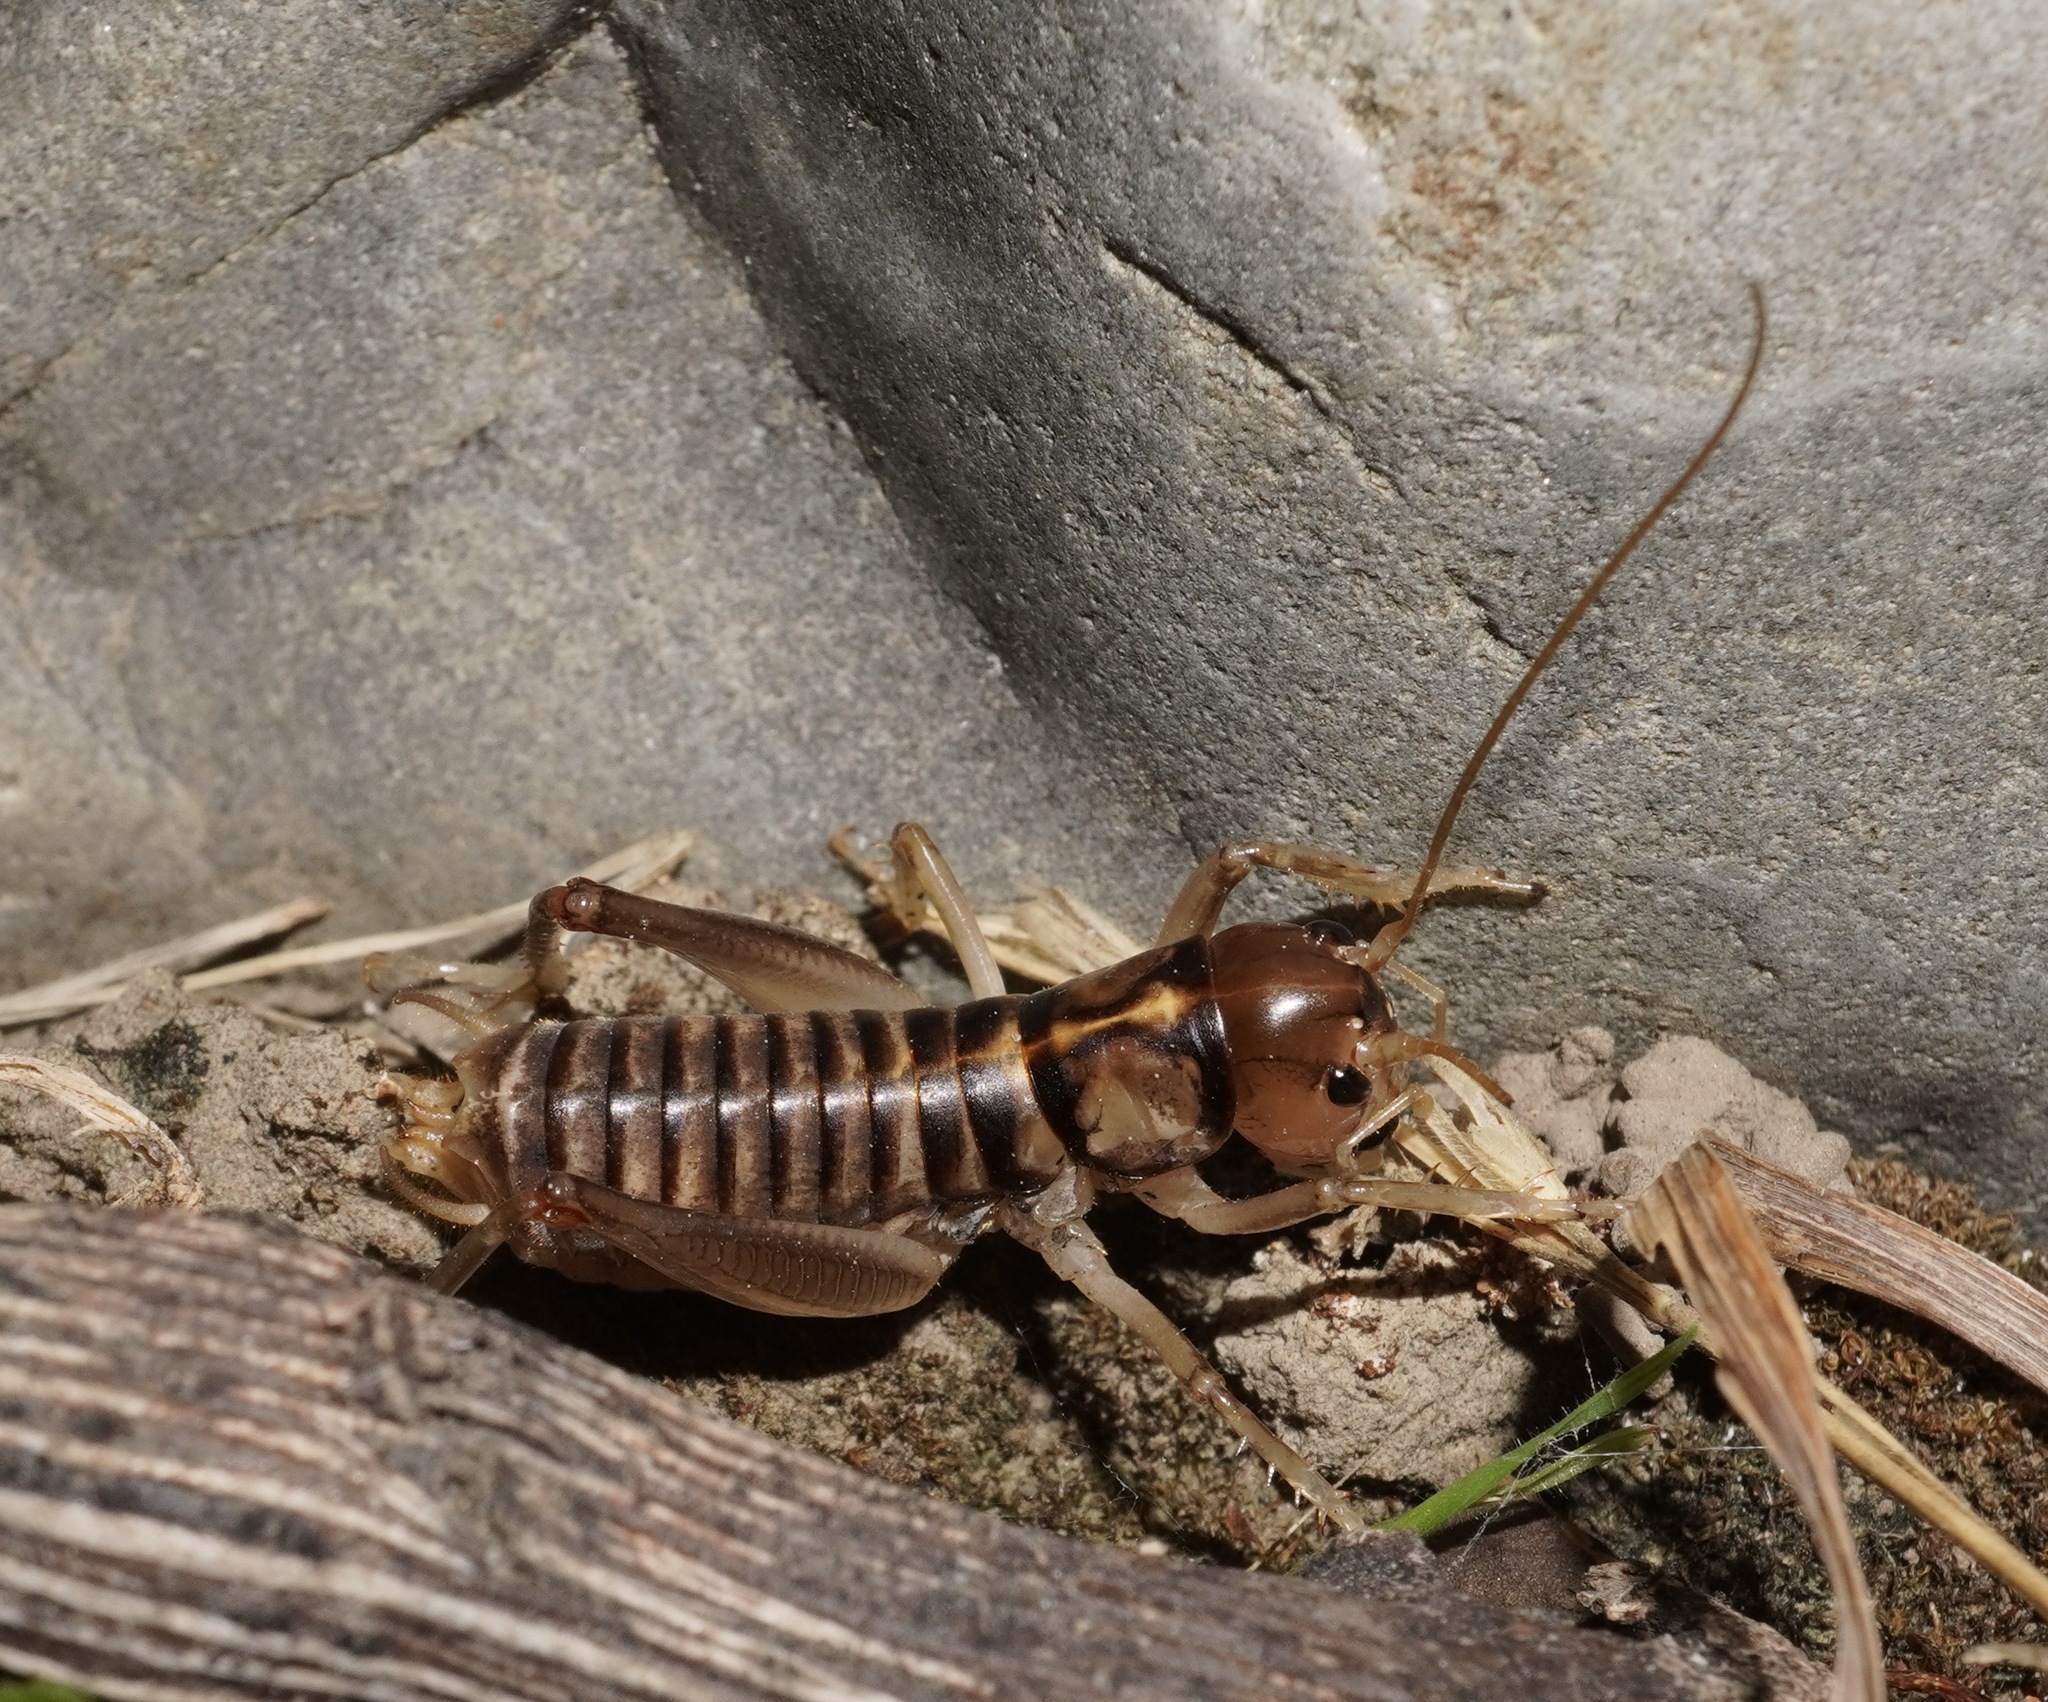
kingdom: Animalia
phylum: Arthropoda
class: Insecta
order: Orthoptera
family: Anostostomatidae
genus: Hemiandrus
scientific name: Hemiandrus bilobatus
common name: Wine wētā
